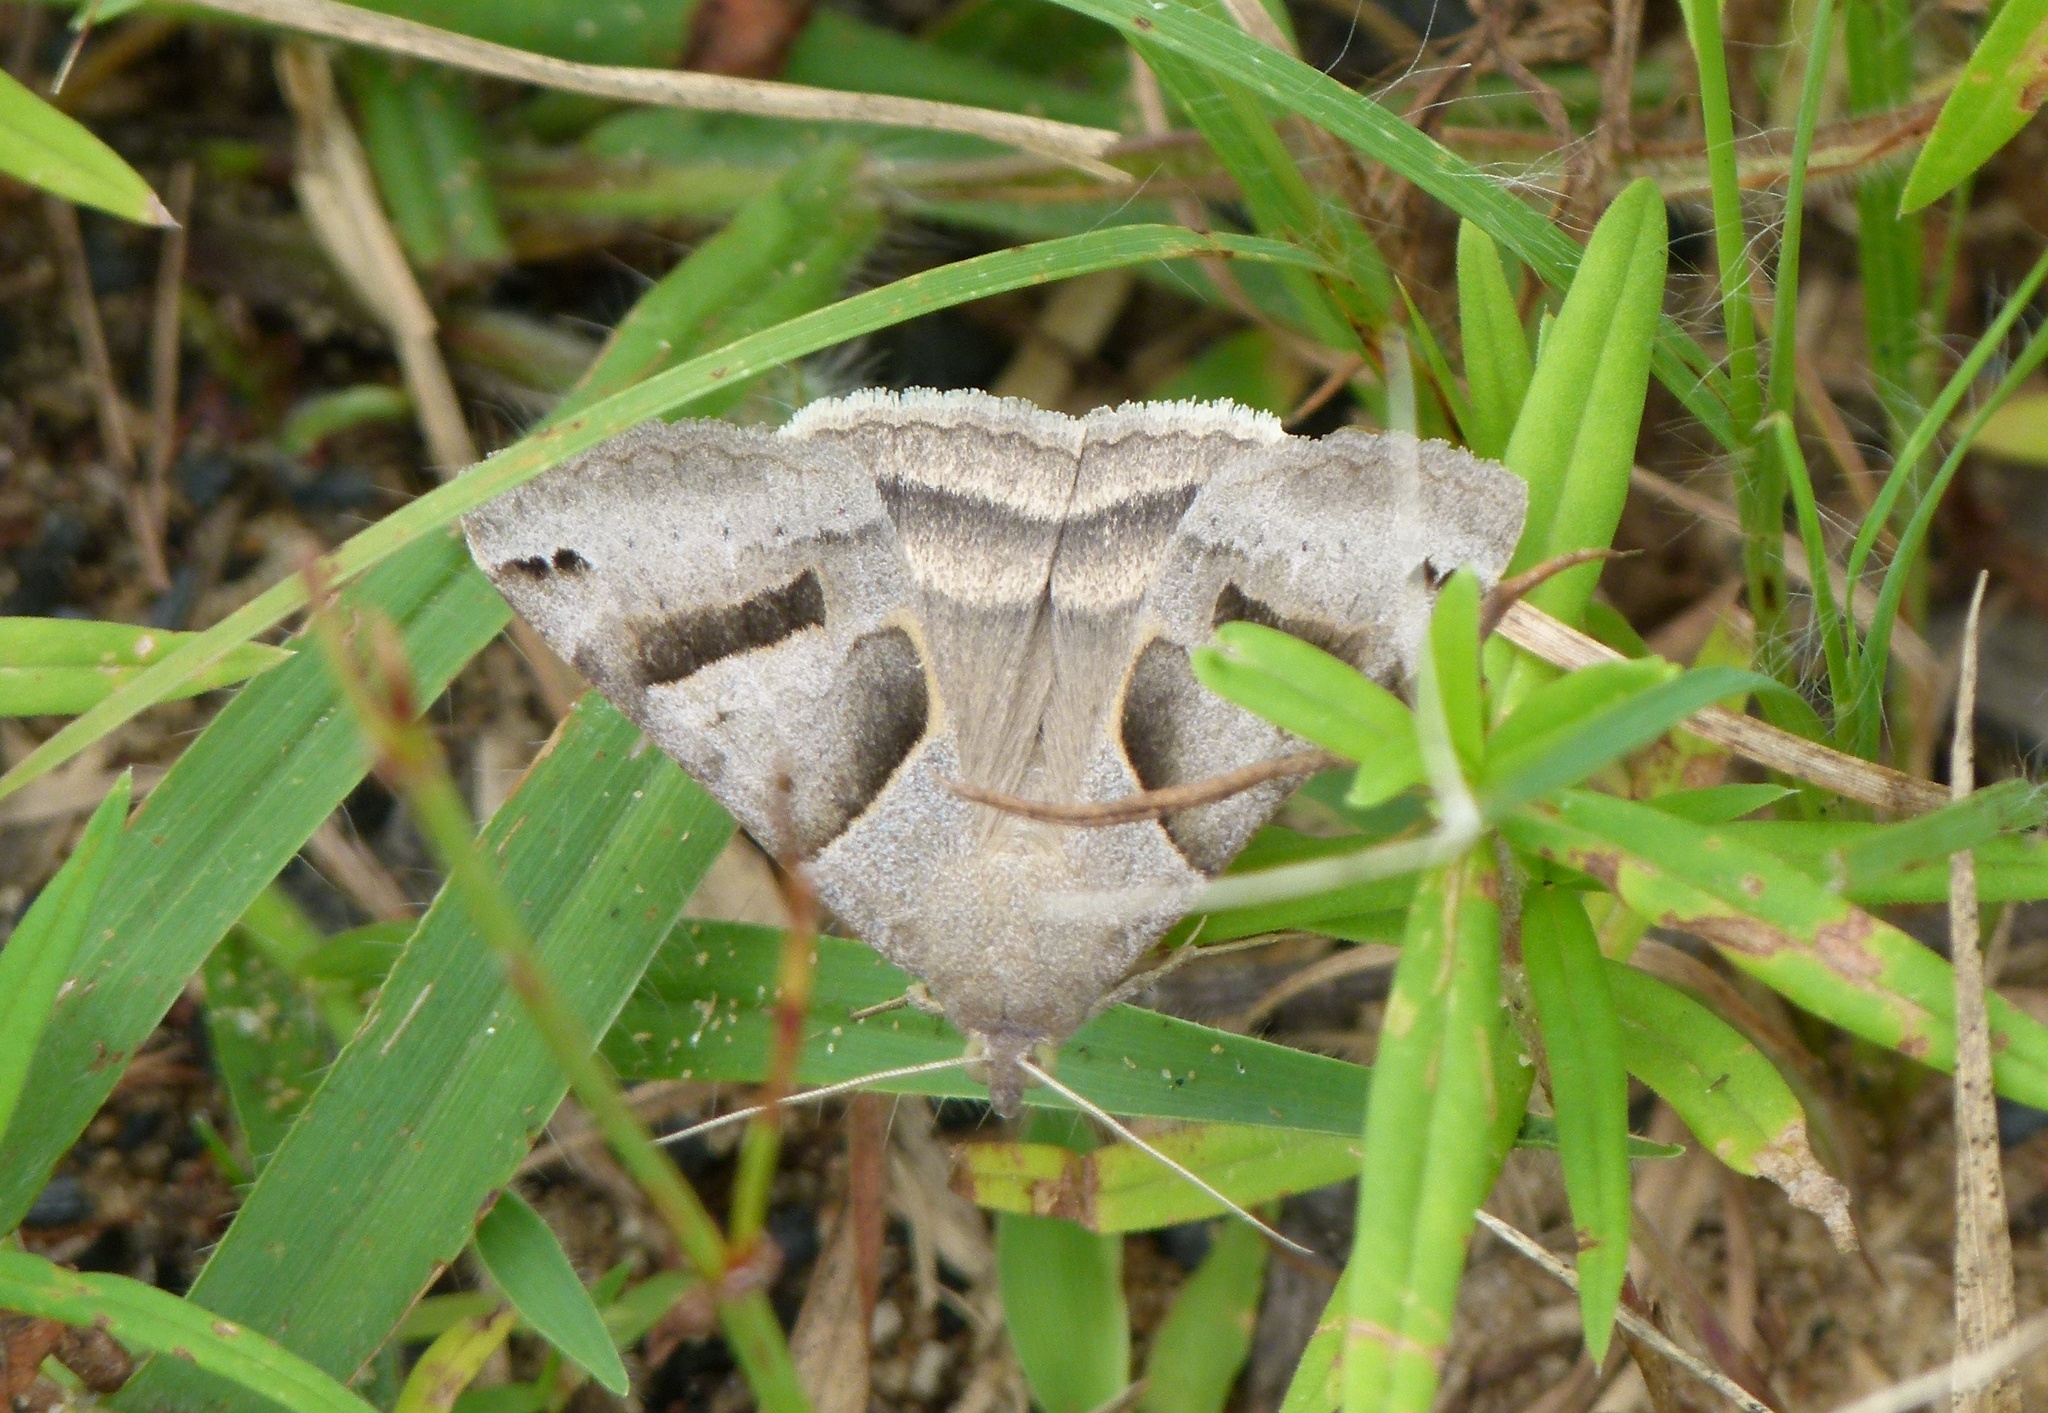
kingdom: Animalia
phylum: Arthropoda
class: Insecta
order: Lepidoptera
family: Erebidae
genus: Caenurgina
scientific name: Caenurgina erechtea
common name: Forage looper moth
